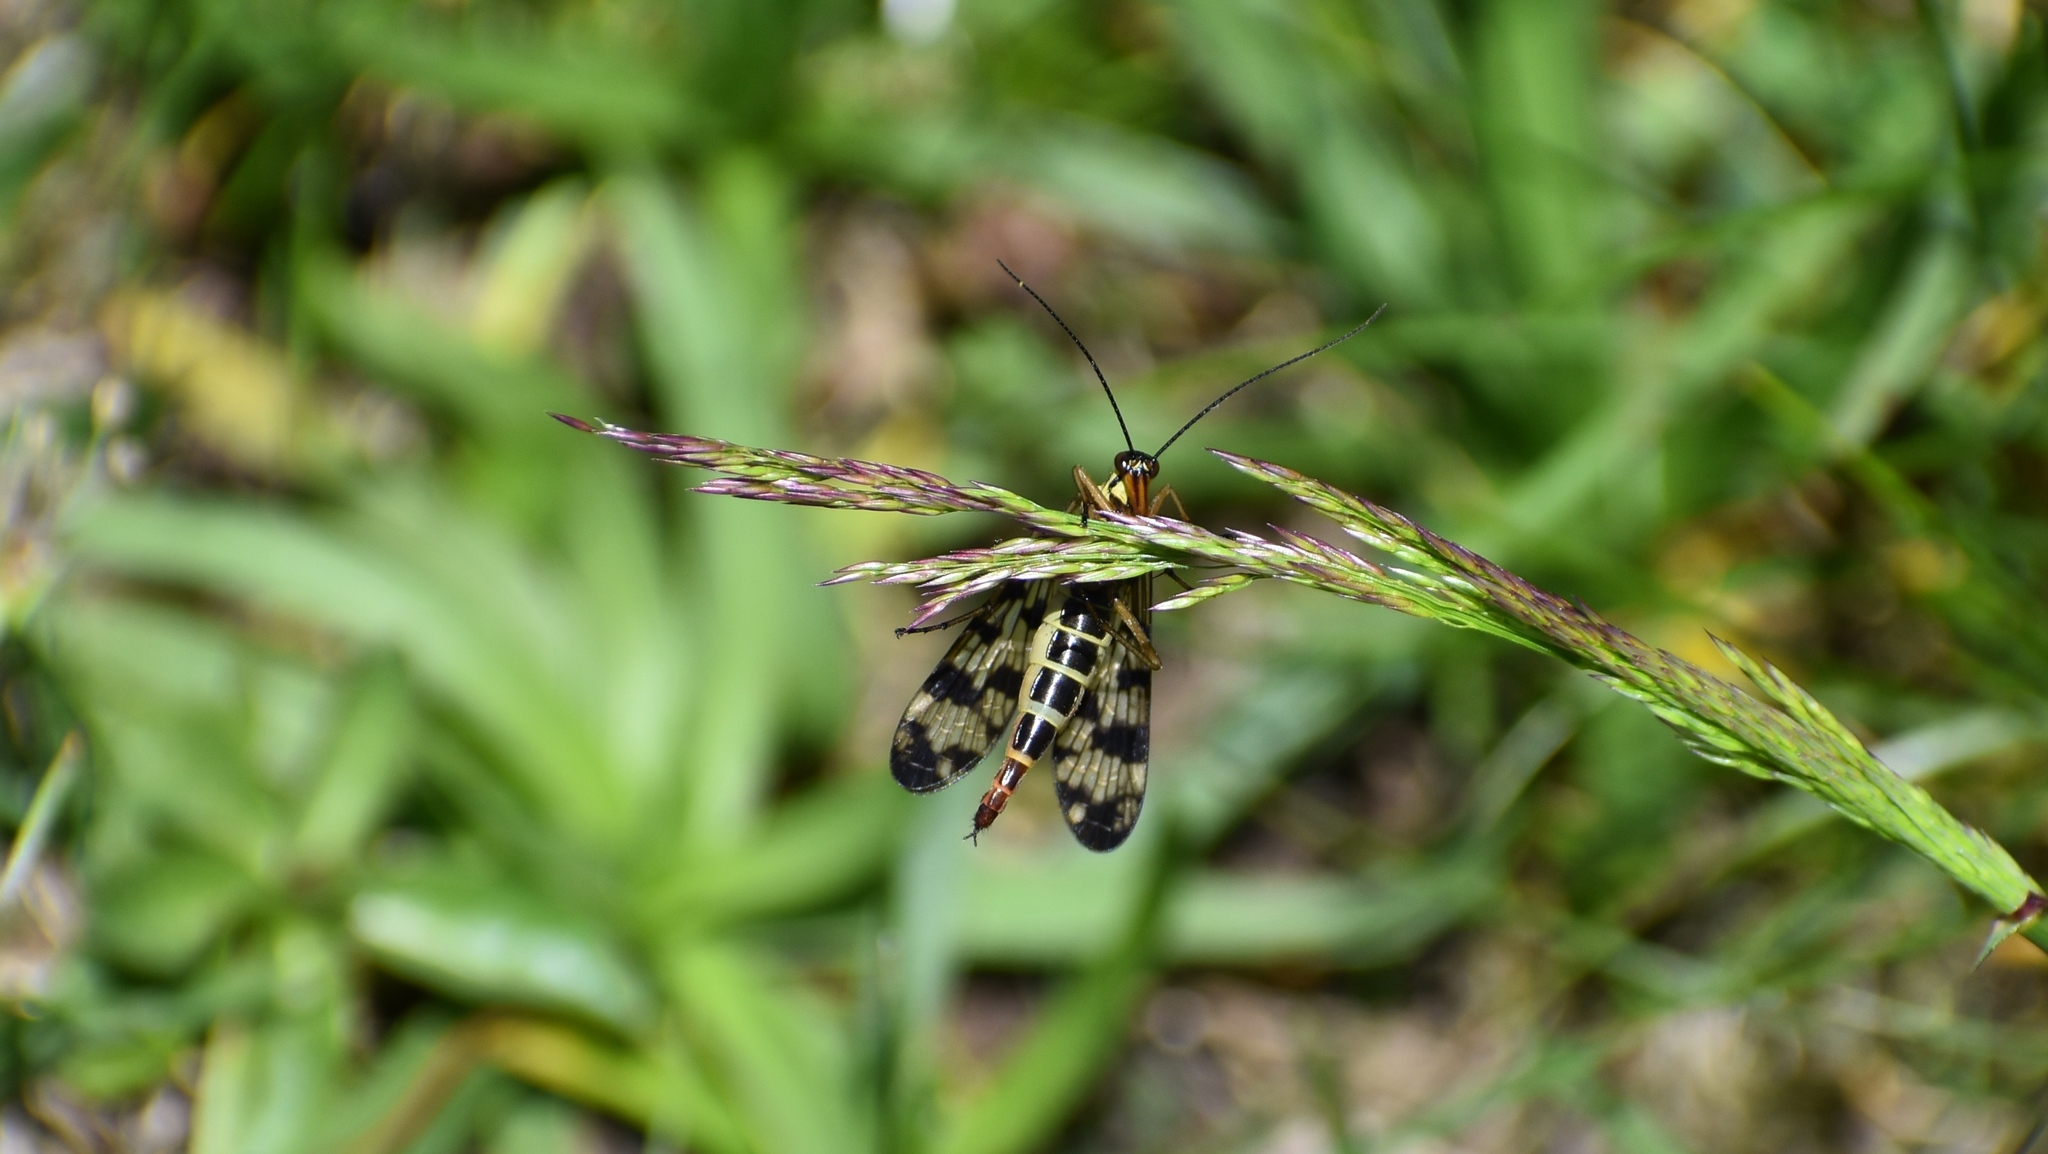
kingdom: Animalia
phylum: Arthropoda
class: Insecta
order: Mecoptera
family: Panorpidae
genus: Panorpa
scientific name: Panorpa communis
